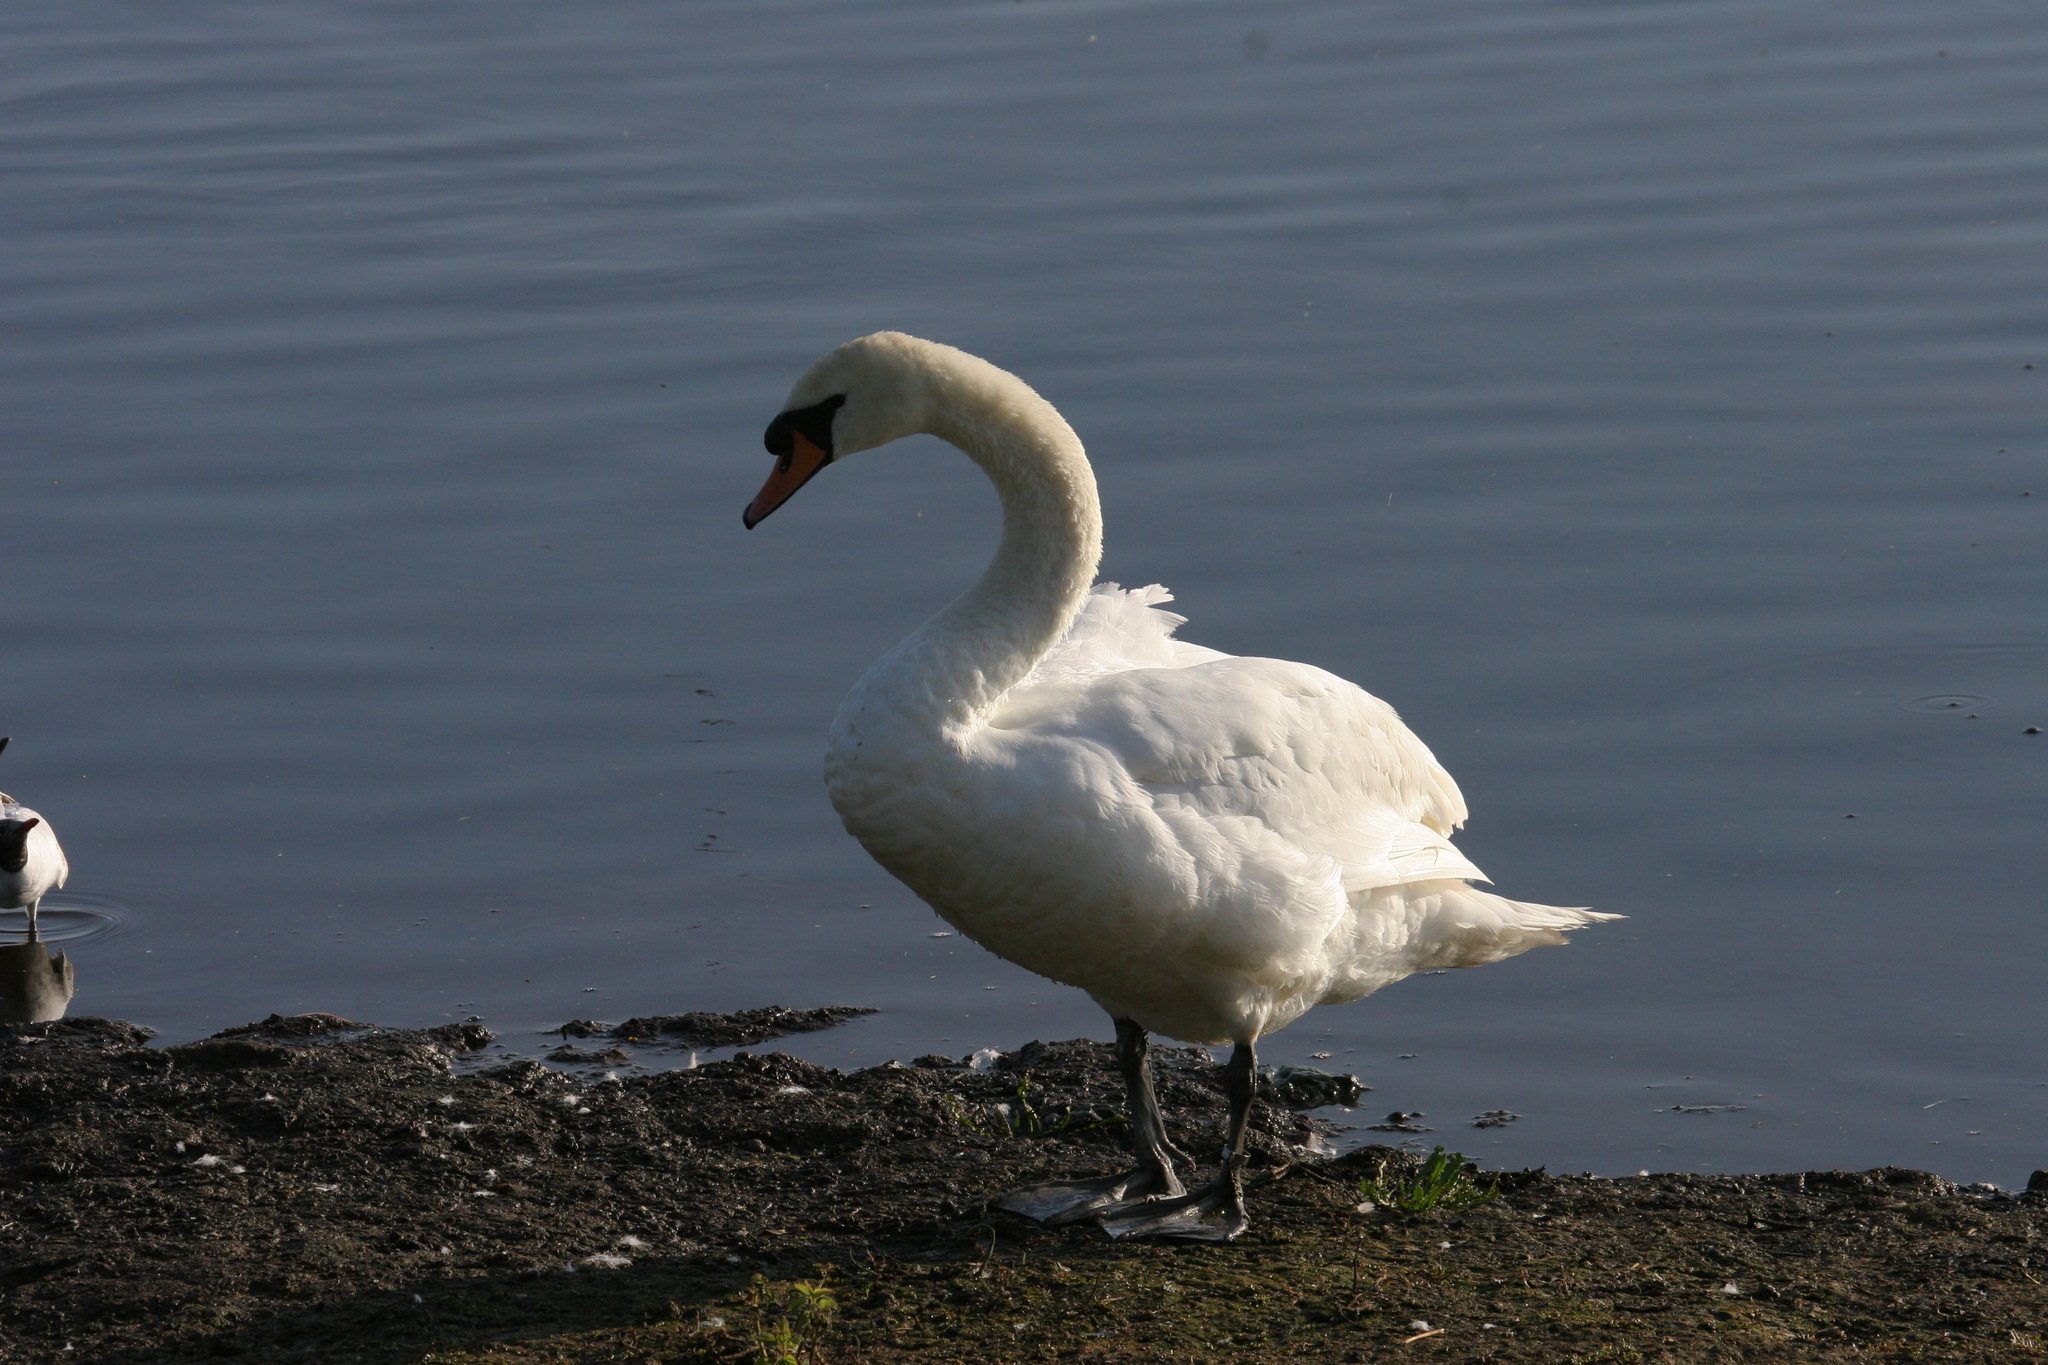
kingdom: Animalia
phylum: Chordata
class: Aves
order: Anseriformes
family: Anatidae
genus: Cygnus
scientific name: Cygnus olor
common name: Mute swan
